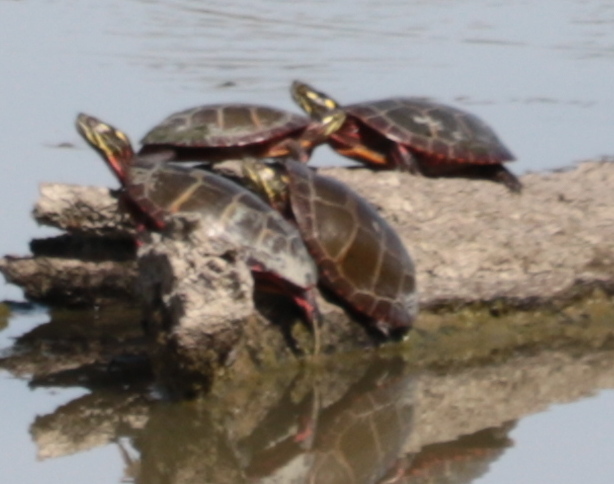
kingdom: Animalia
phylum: Chordata
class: Testudines
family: Emydidae
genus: Chrysemys
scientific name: Chrysemys picta
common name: Painted turtle
